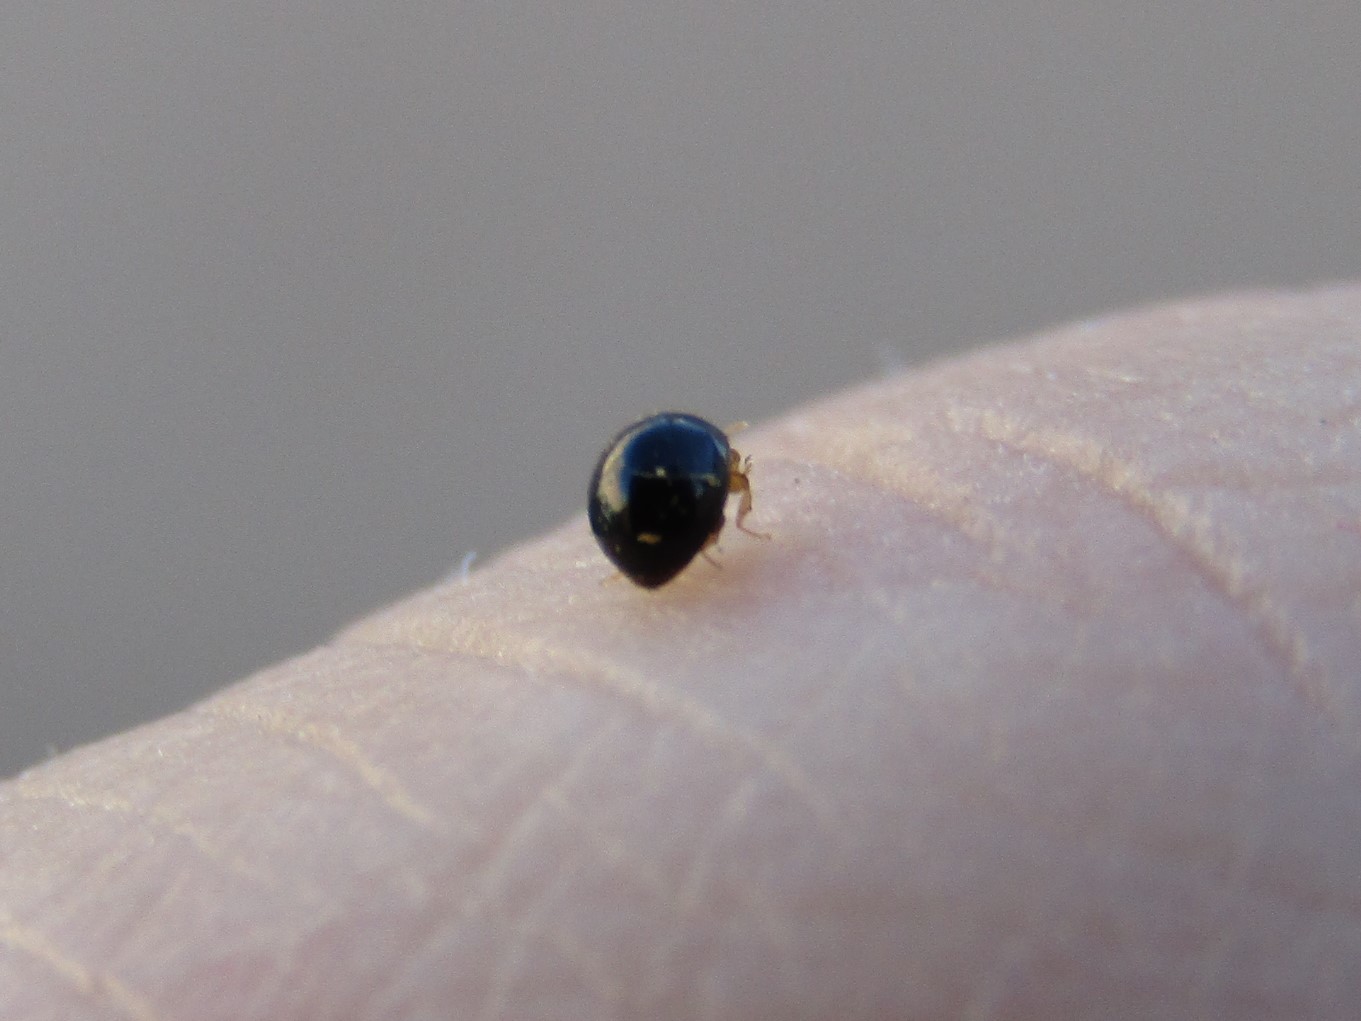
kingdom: Animalia
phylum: Arthropoda
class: Insecta
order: Coleoptera
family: Coccinellidae
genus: Delphastus
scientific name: Delphastus
